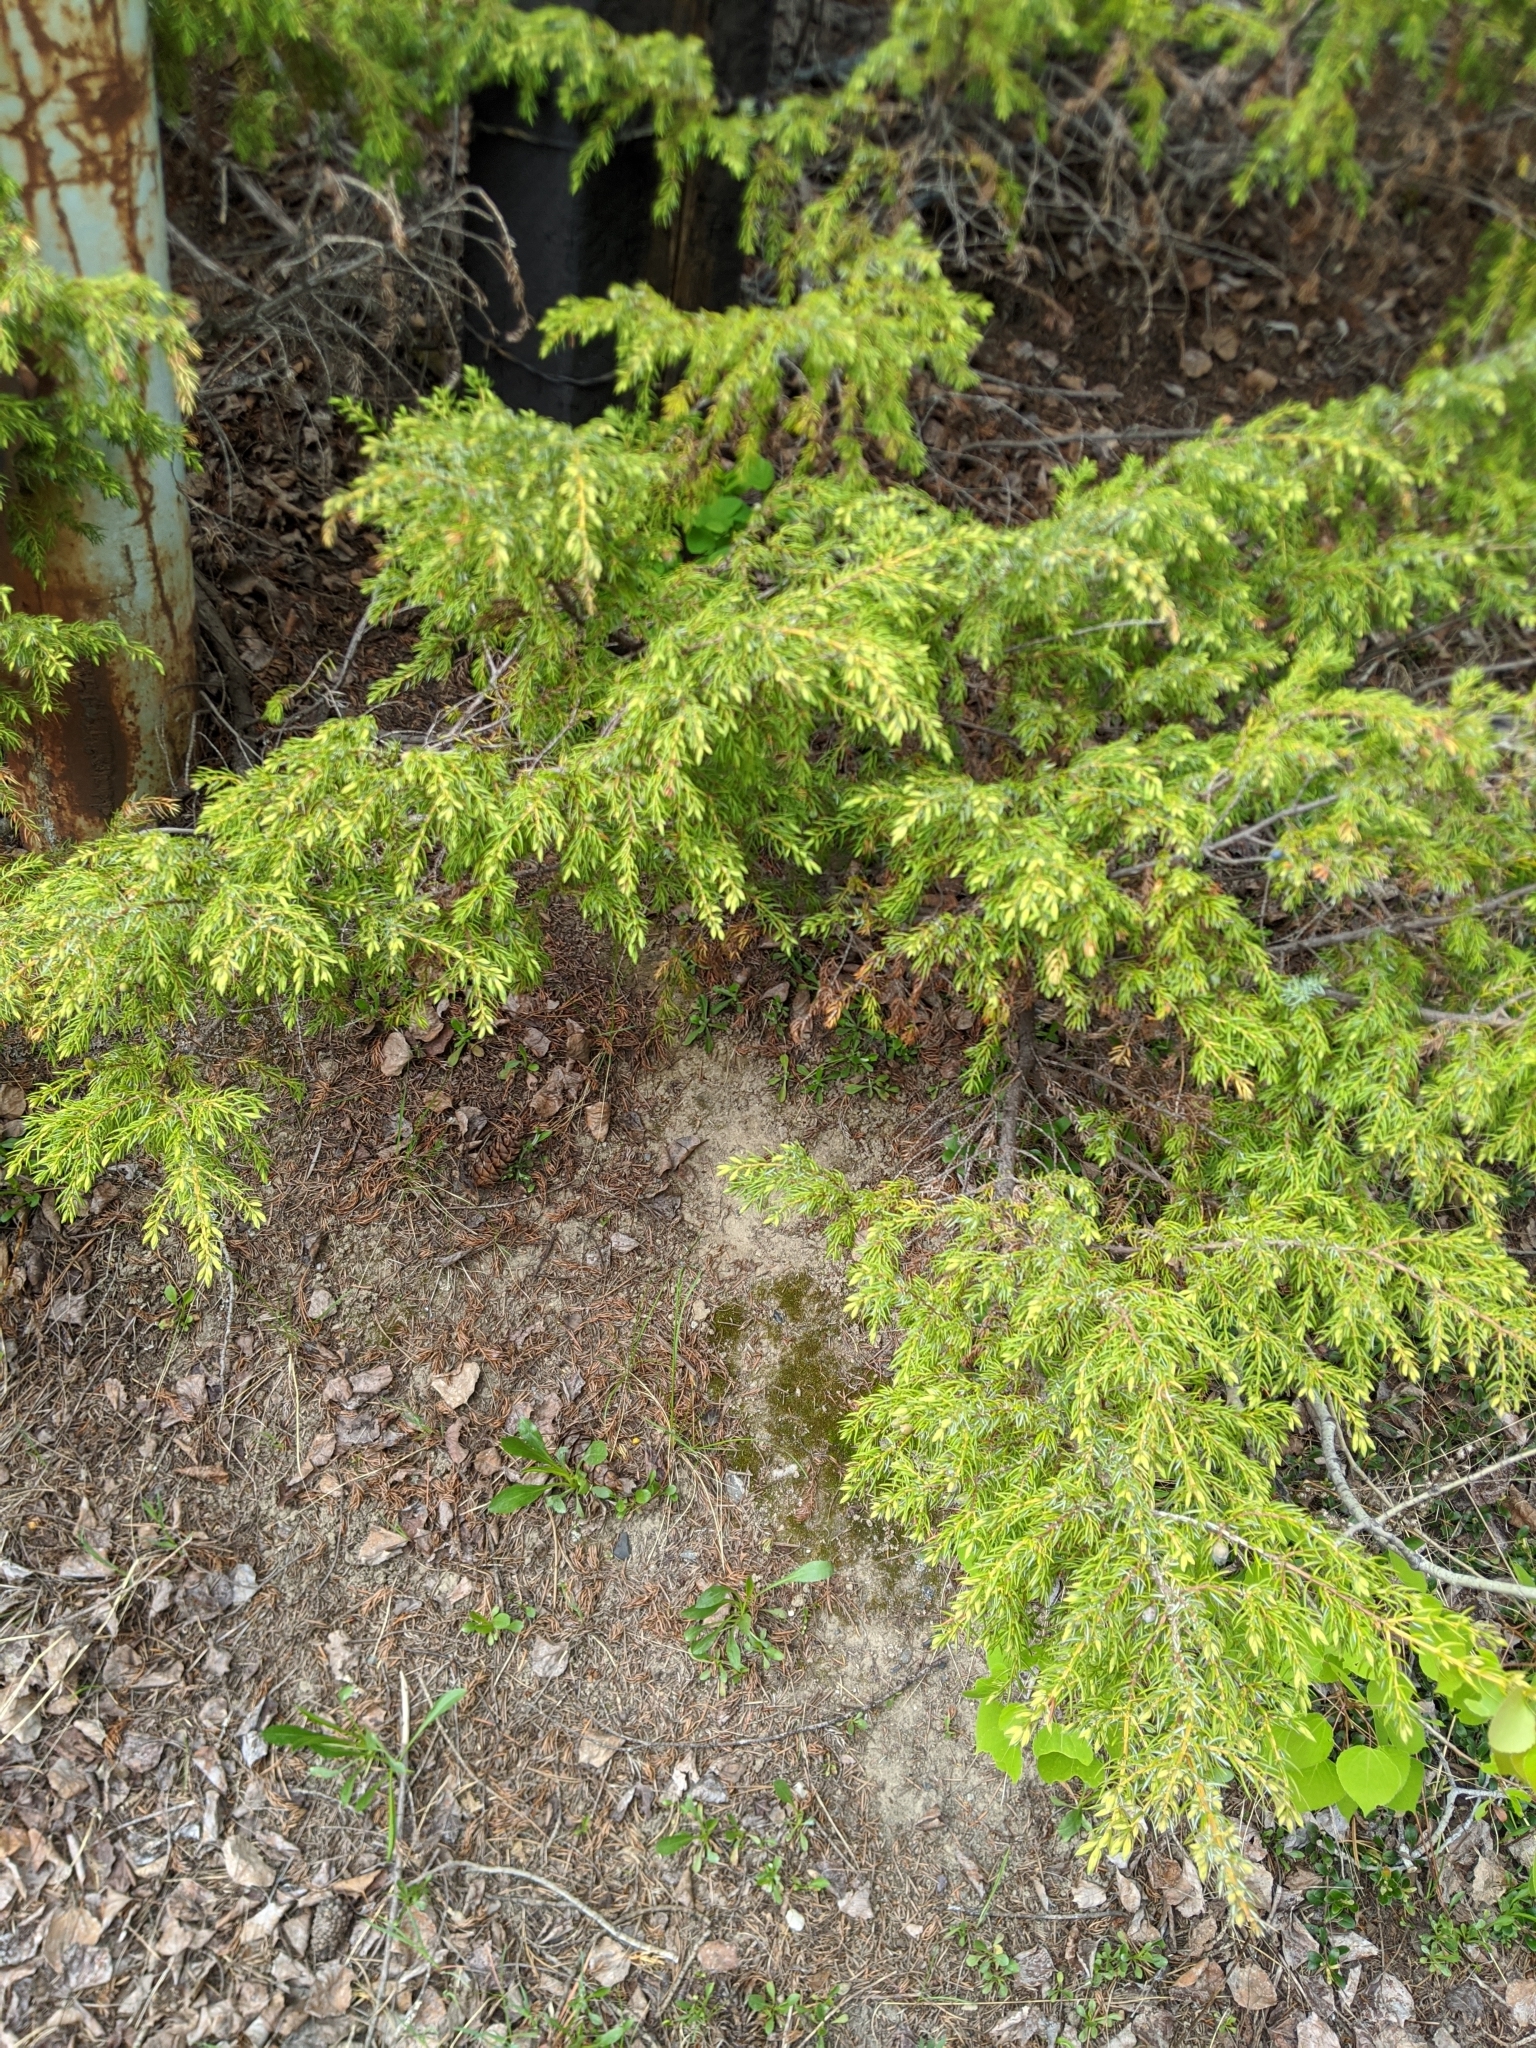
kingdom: Plantae
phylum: Tracheophyta
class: Pinopsida
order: Pinales
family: Cupressaceae
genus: Juniperus
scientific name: Juniperus communis
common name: Common juniper
